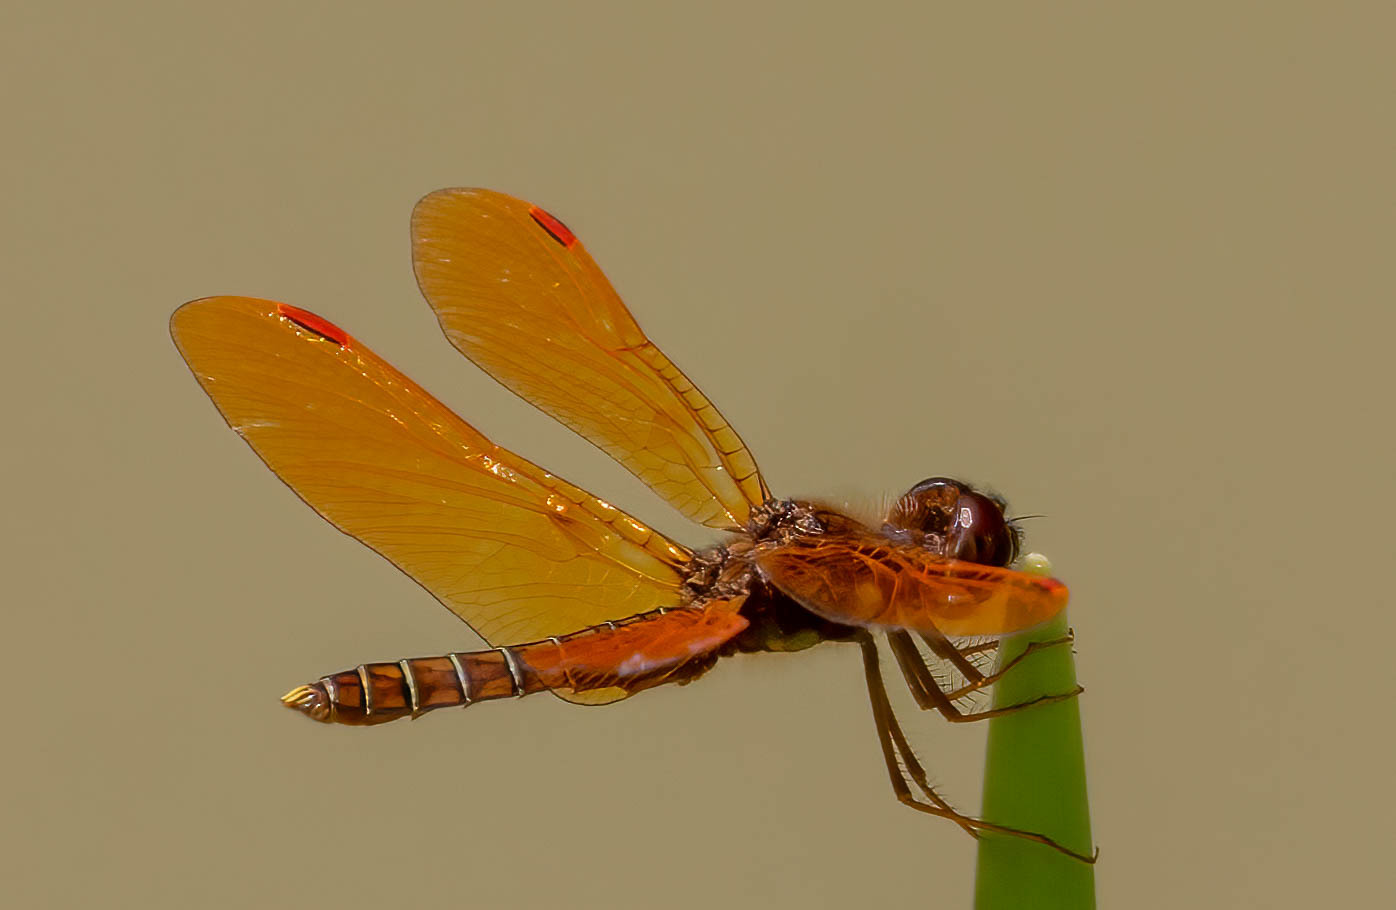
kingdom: Animalia
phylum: Arthropoda
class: Insecta
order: Odonata
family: Libellulidae
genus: Perithemis
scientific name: Perithemis tenera
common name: Eastern amberwing
